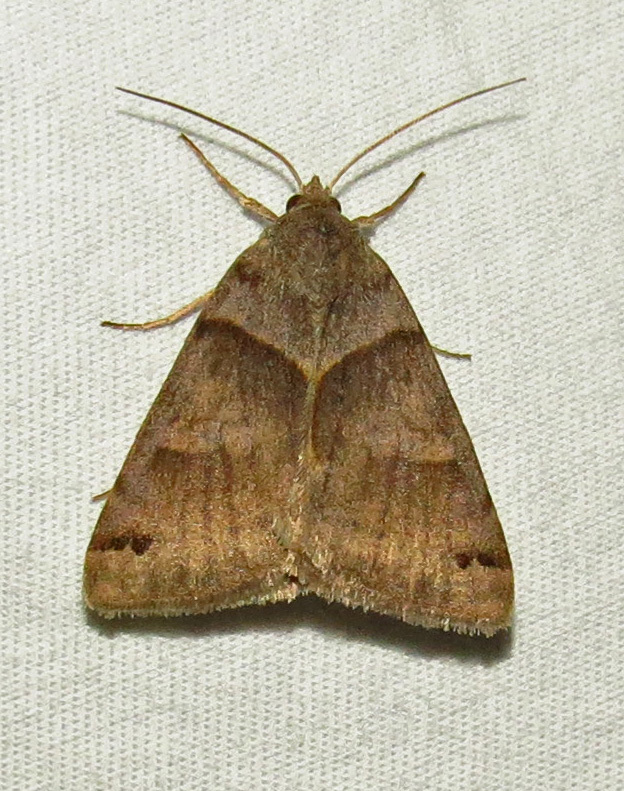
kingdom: Animalia
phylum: Arthropoda
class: Insecta
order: Lepidoptera
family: Erebidae
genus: Caenurgina
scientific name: Caenurgina crassiuscula
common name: Double-barred
